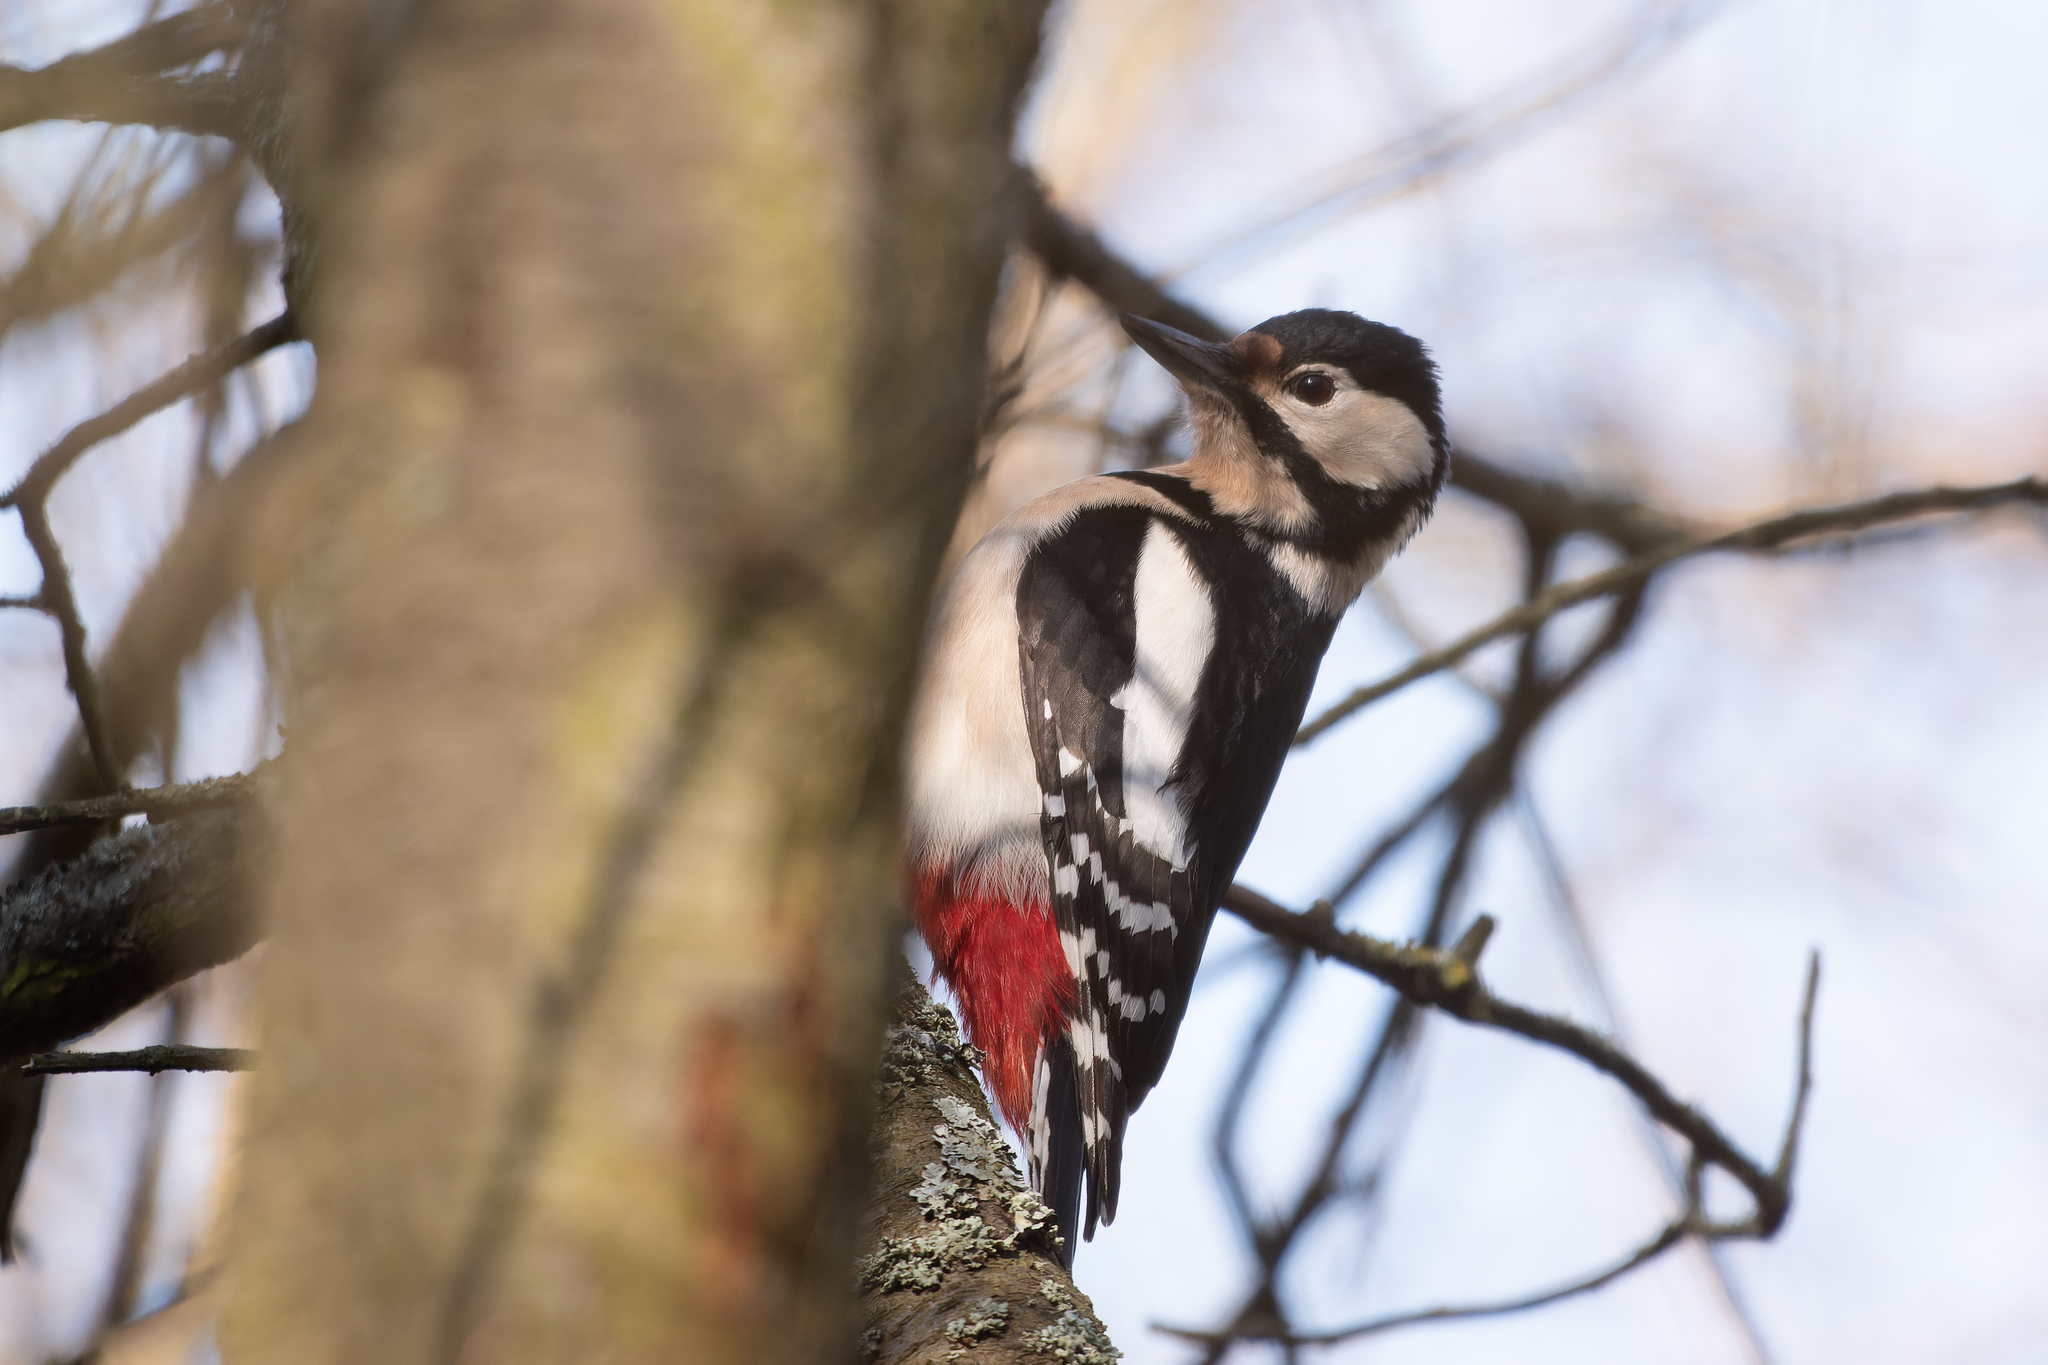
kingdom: Animalia
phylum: Chordata
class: Aves
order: Piciformes
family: Picidae
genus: Dendrocopos
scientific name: Dendrocopos major
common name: Great spotted woodpecker
